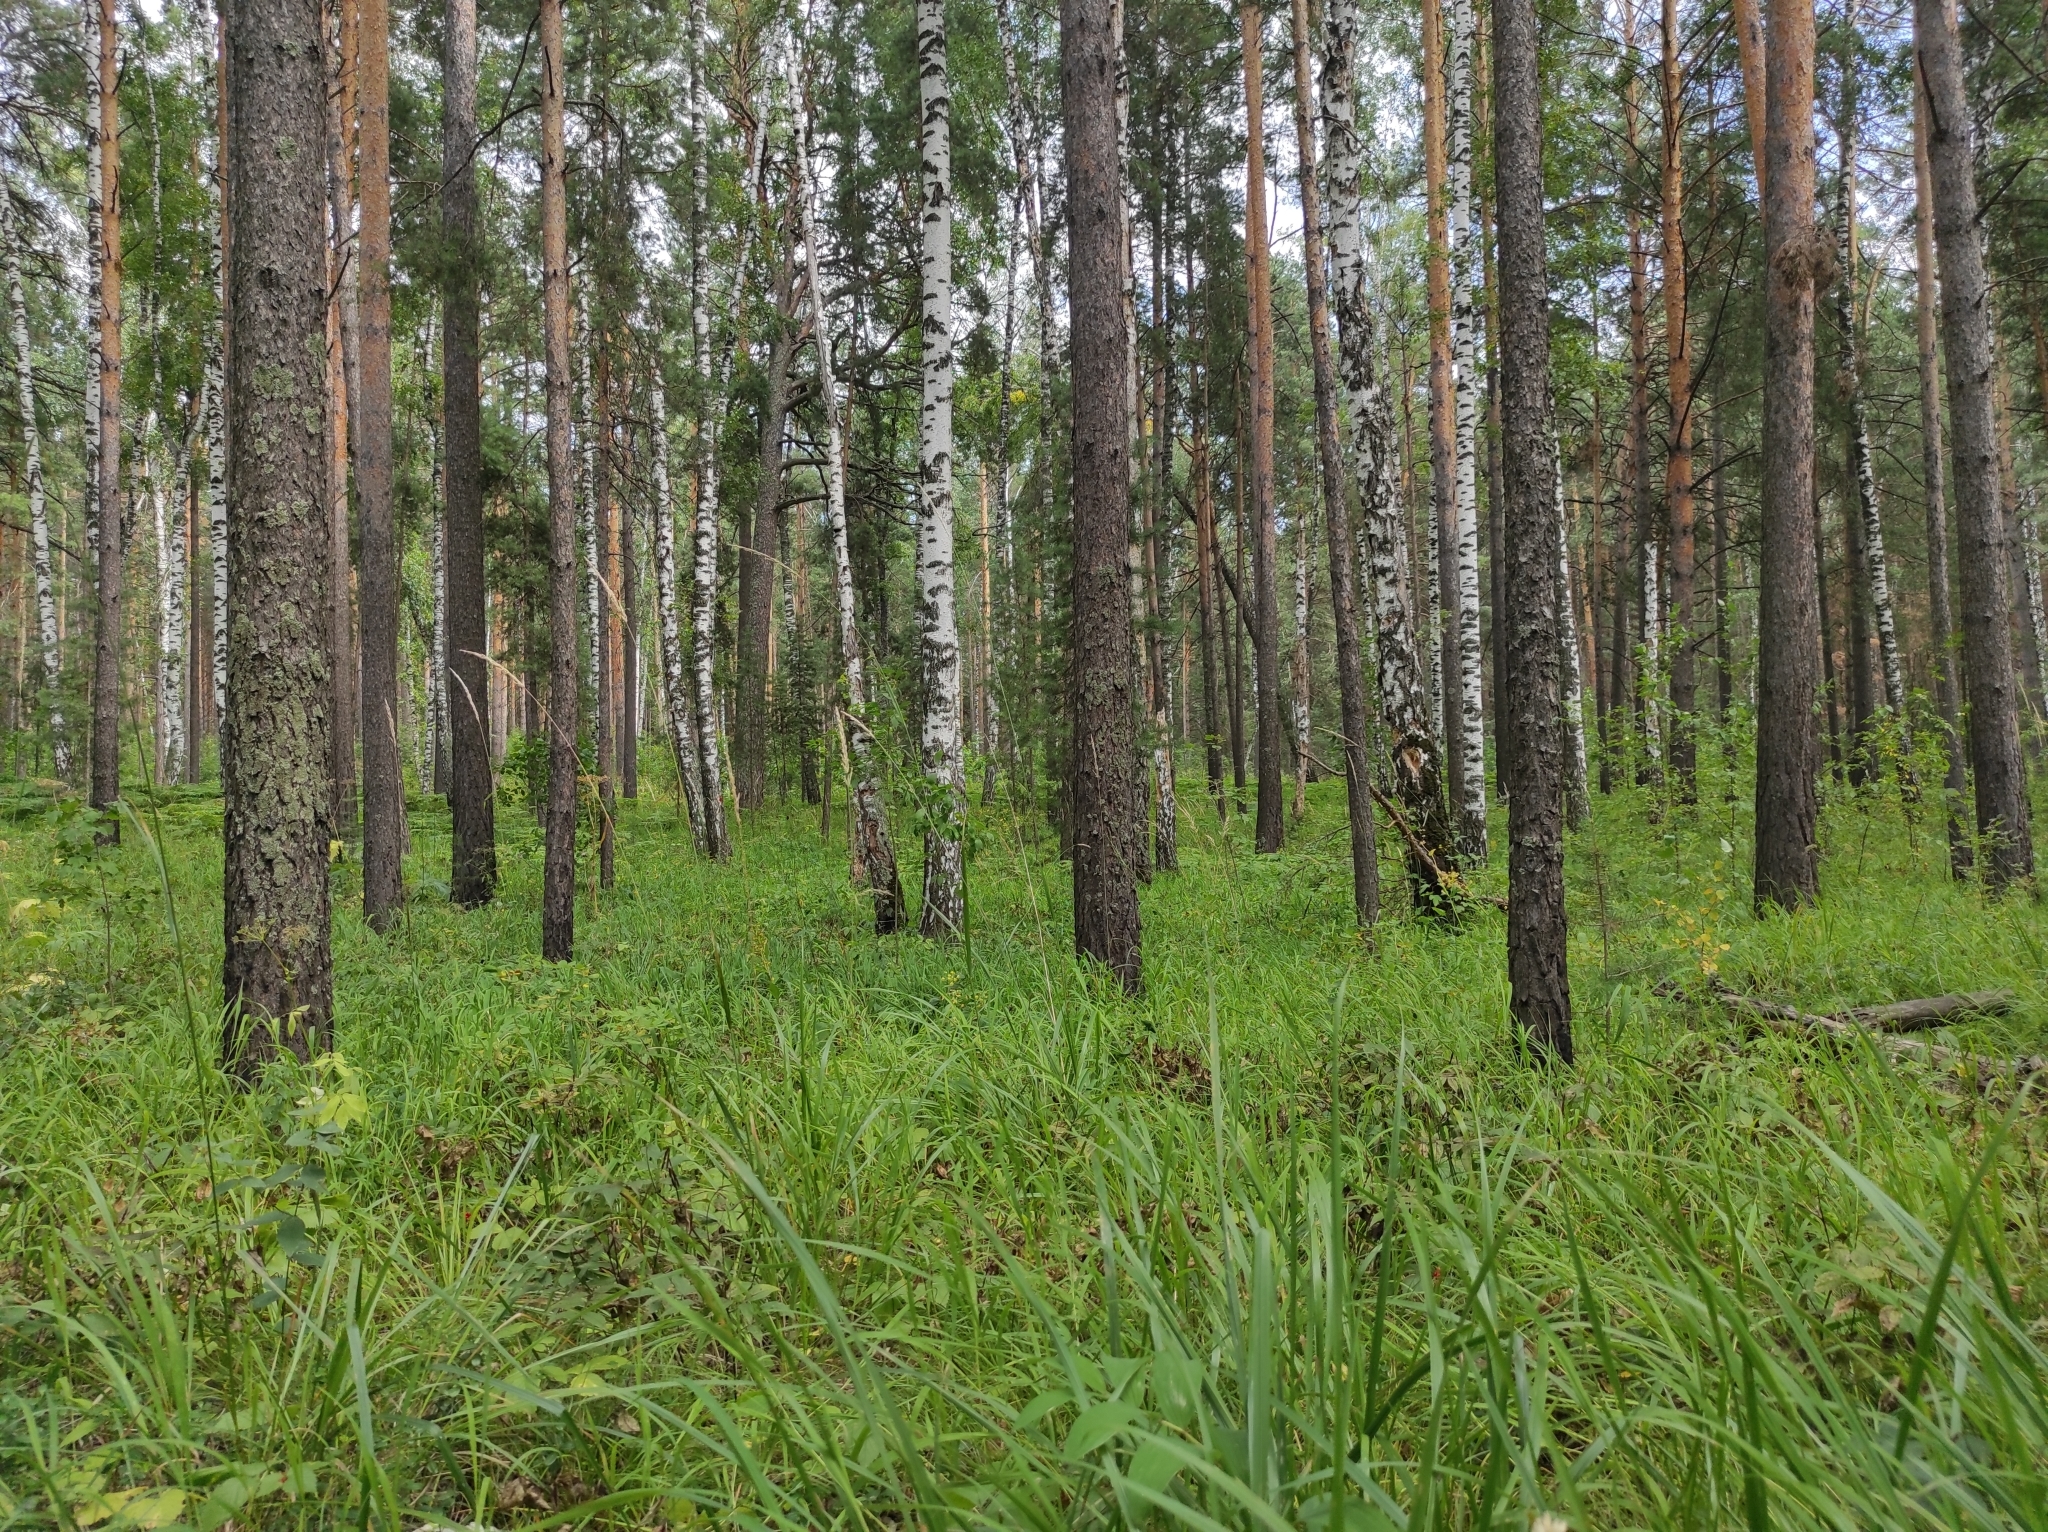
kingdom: Plantae
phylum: Tracheophyta
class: Liliopsida
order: Asparagales
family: Orchidaceae
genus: Hemipilia
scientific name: Hemipilia cucullata
